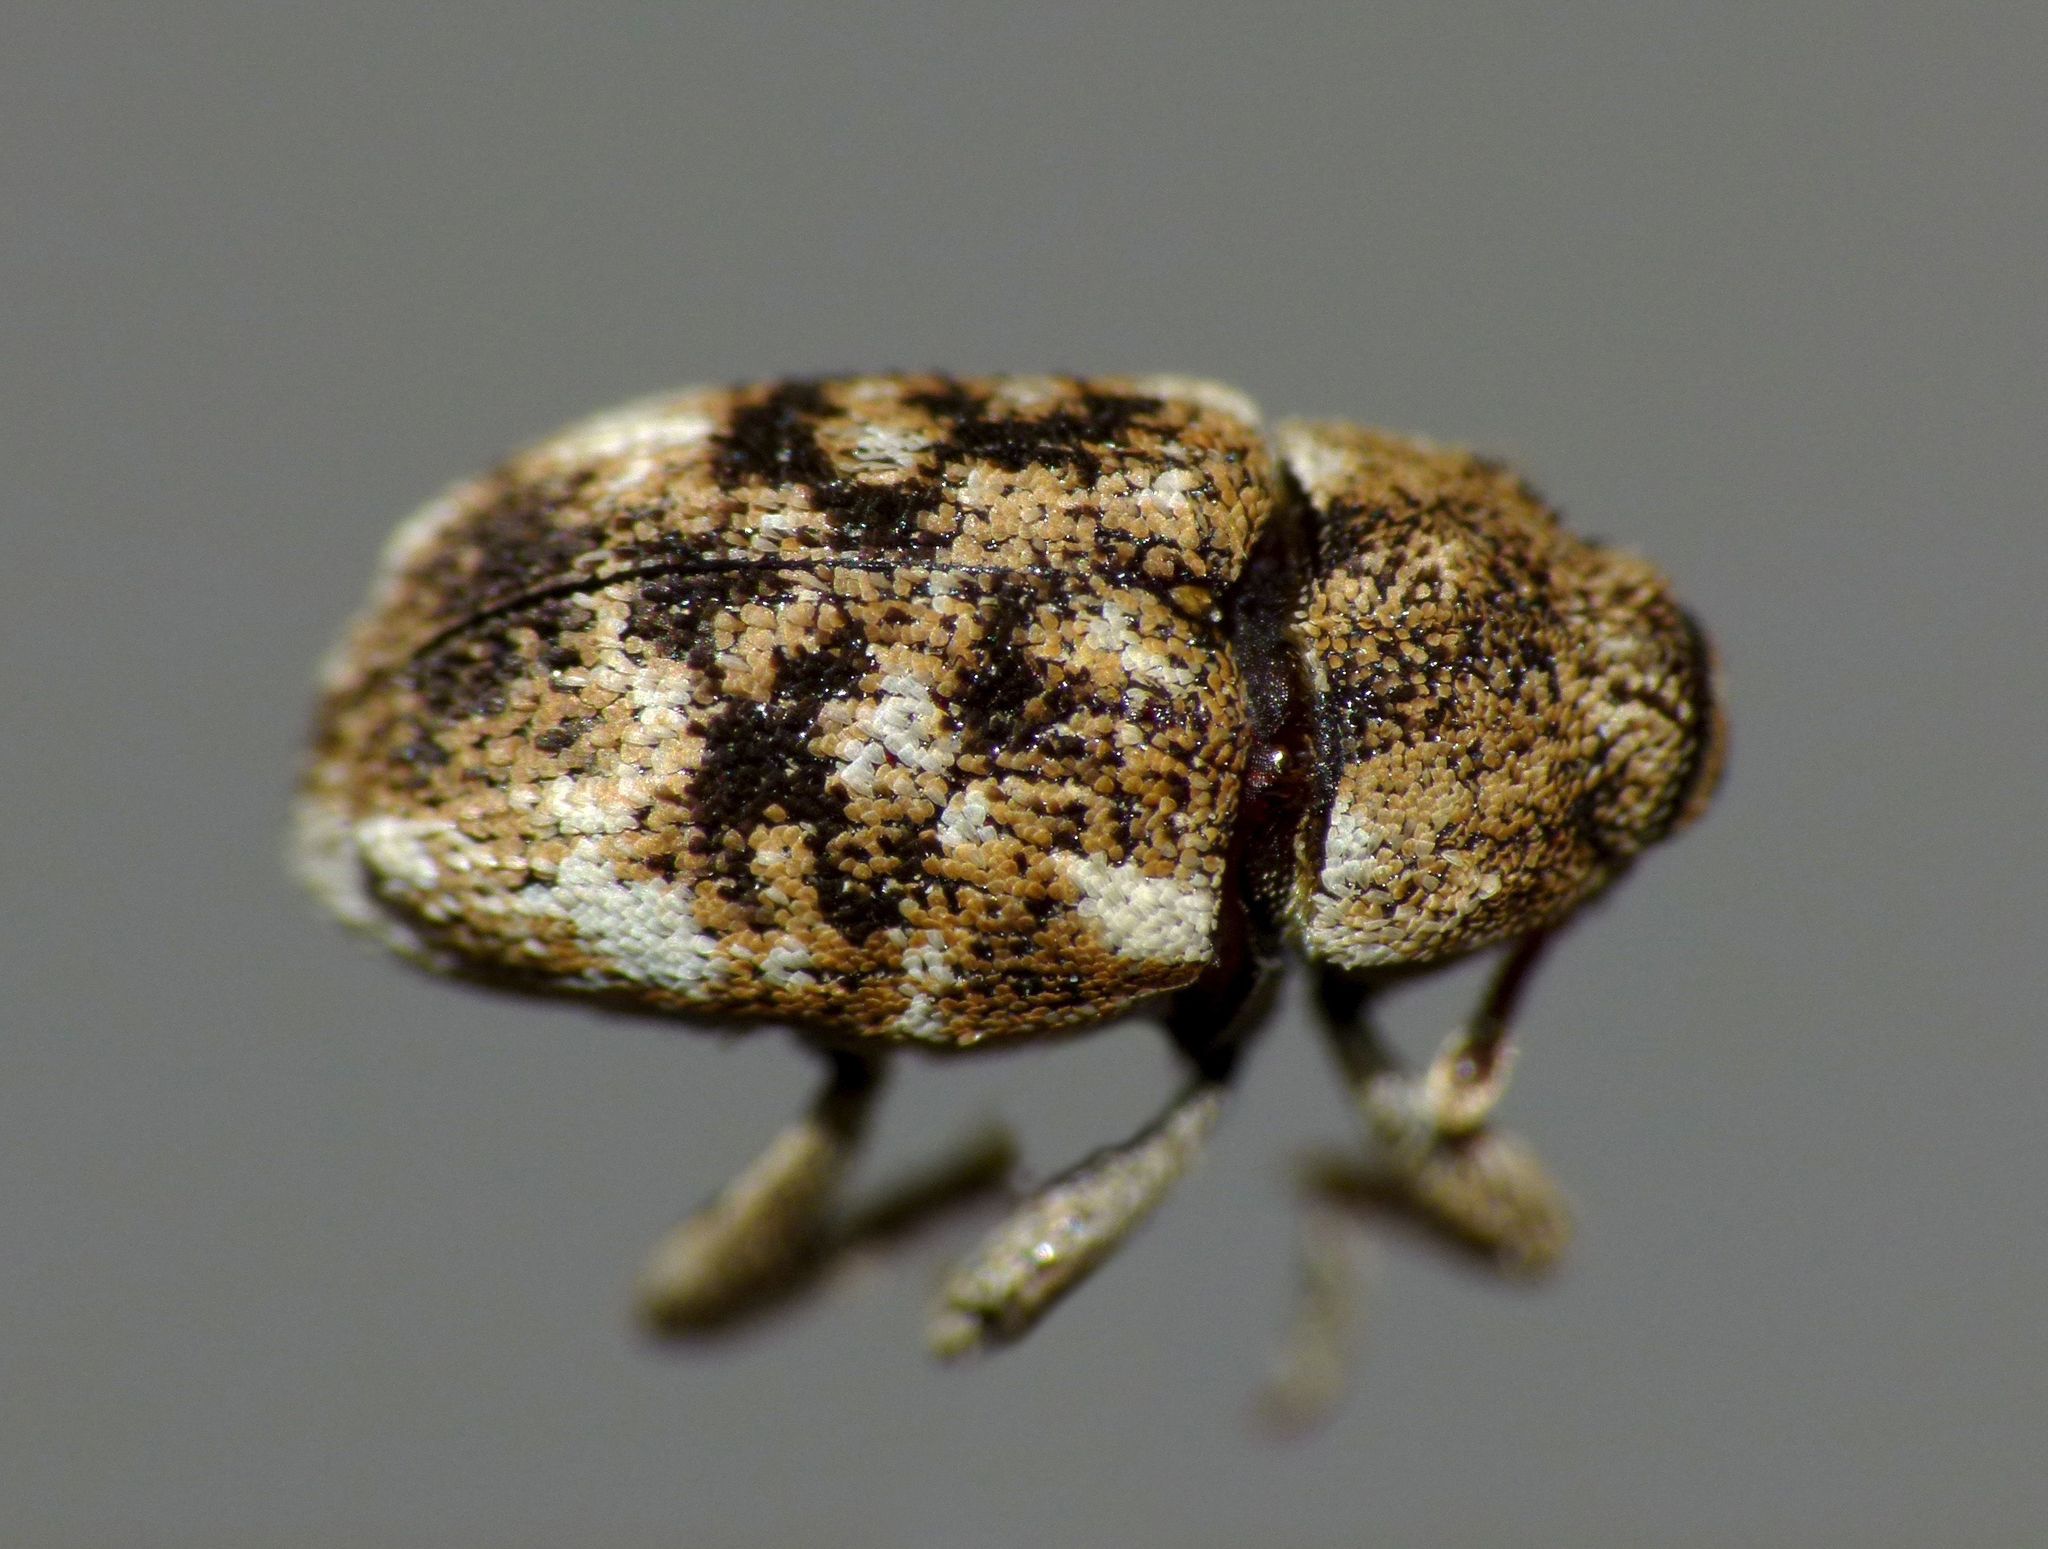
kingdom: Animalia
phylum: Arthropoda
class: Insecta
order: Coleoptera
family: Curculionidae
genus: Storeus
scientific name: Storeus albosignatus
